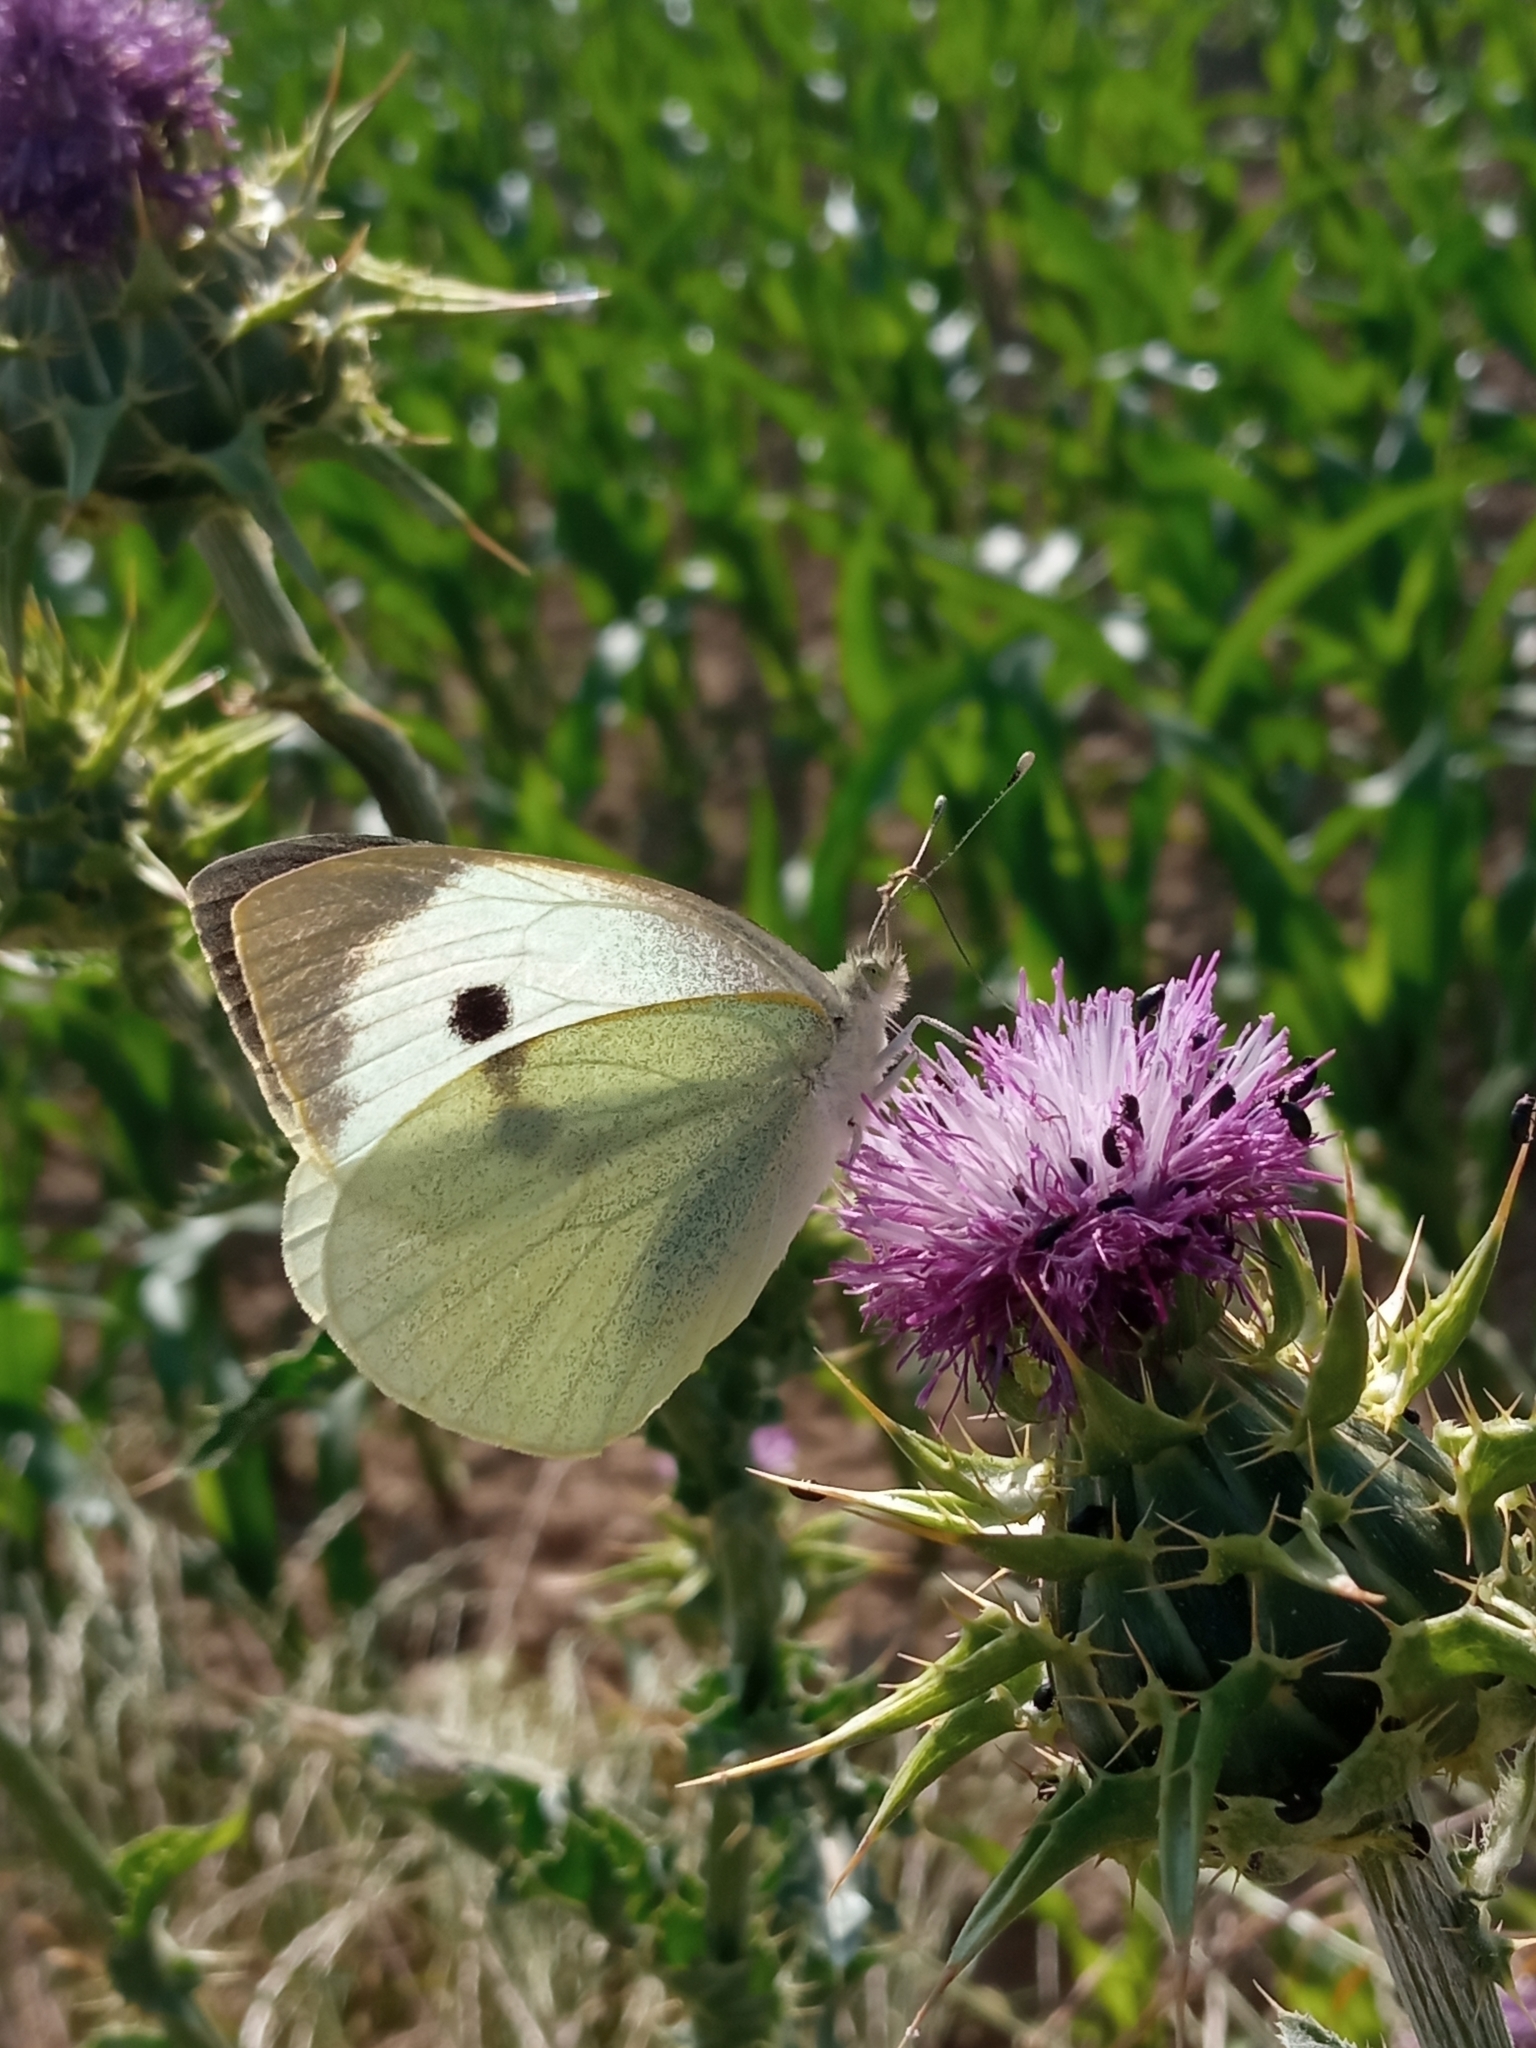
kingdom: Animalia
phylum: Arthropoda
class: Insecta
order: Lepidoptera
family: Pieridae
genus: Pieris
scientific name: Pieris brassicae
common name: Large white
